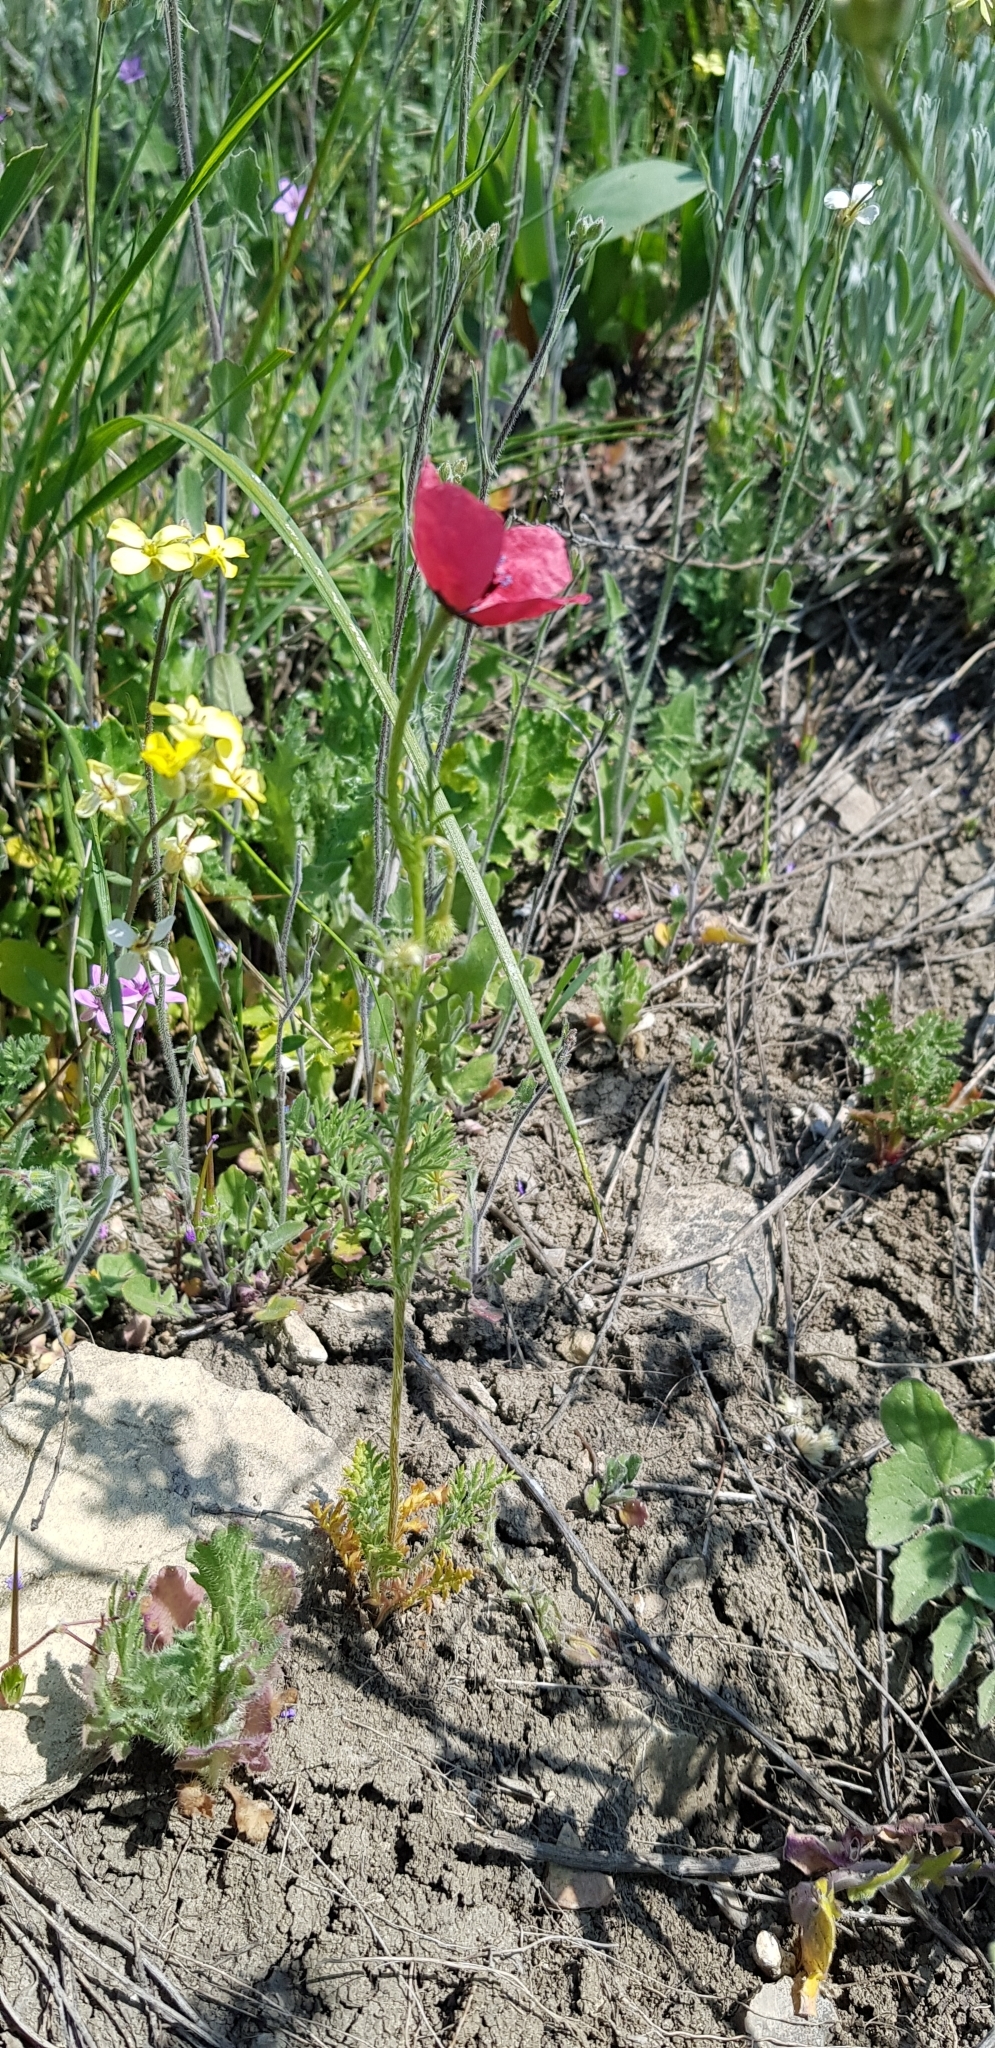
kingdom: Plantae
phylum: Tracheophyta
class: Magnoliopsida
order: Ranunculales
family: Papaveraceae
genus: Papaver
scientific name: Papaver dubium
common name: Long-headed poppy
